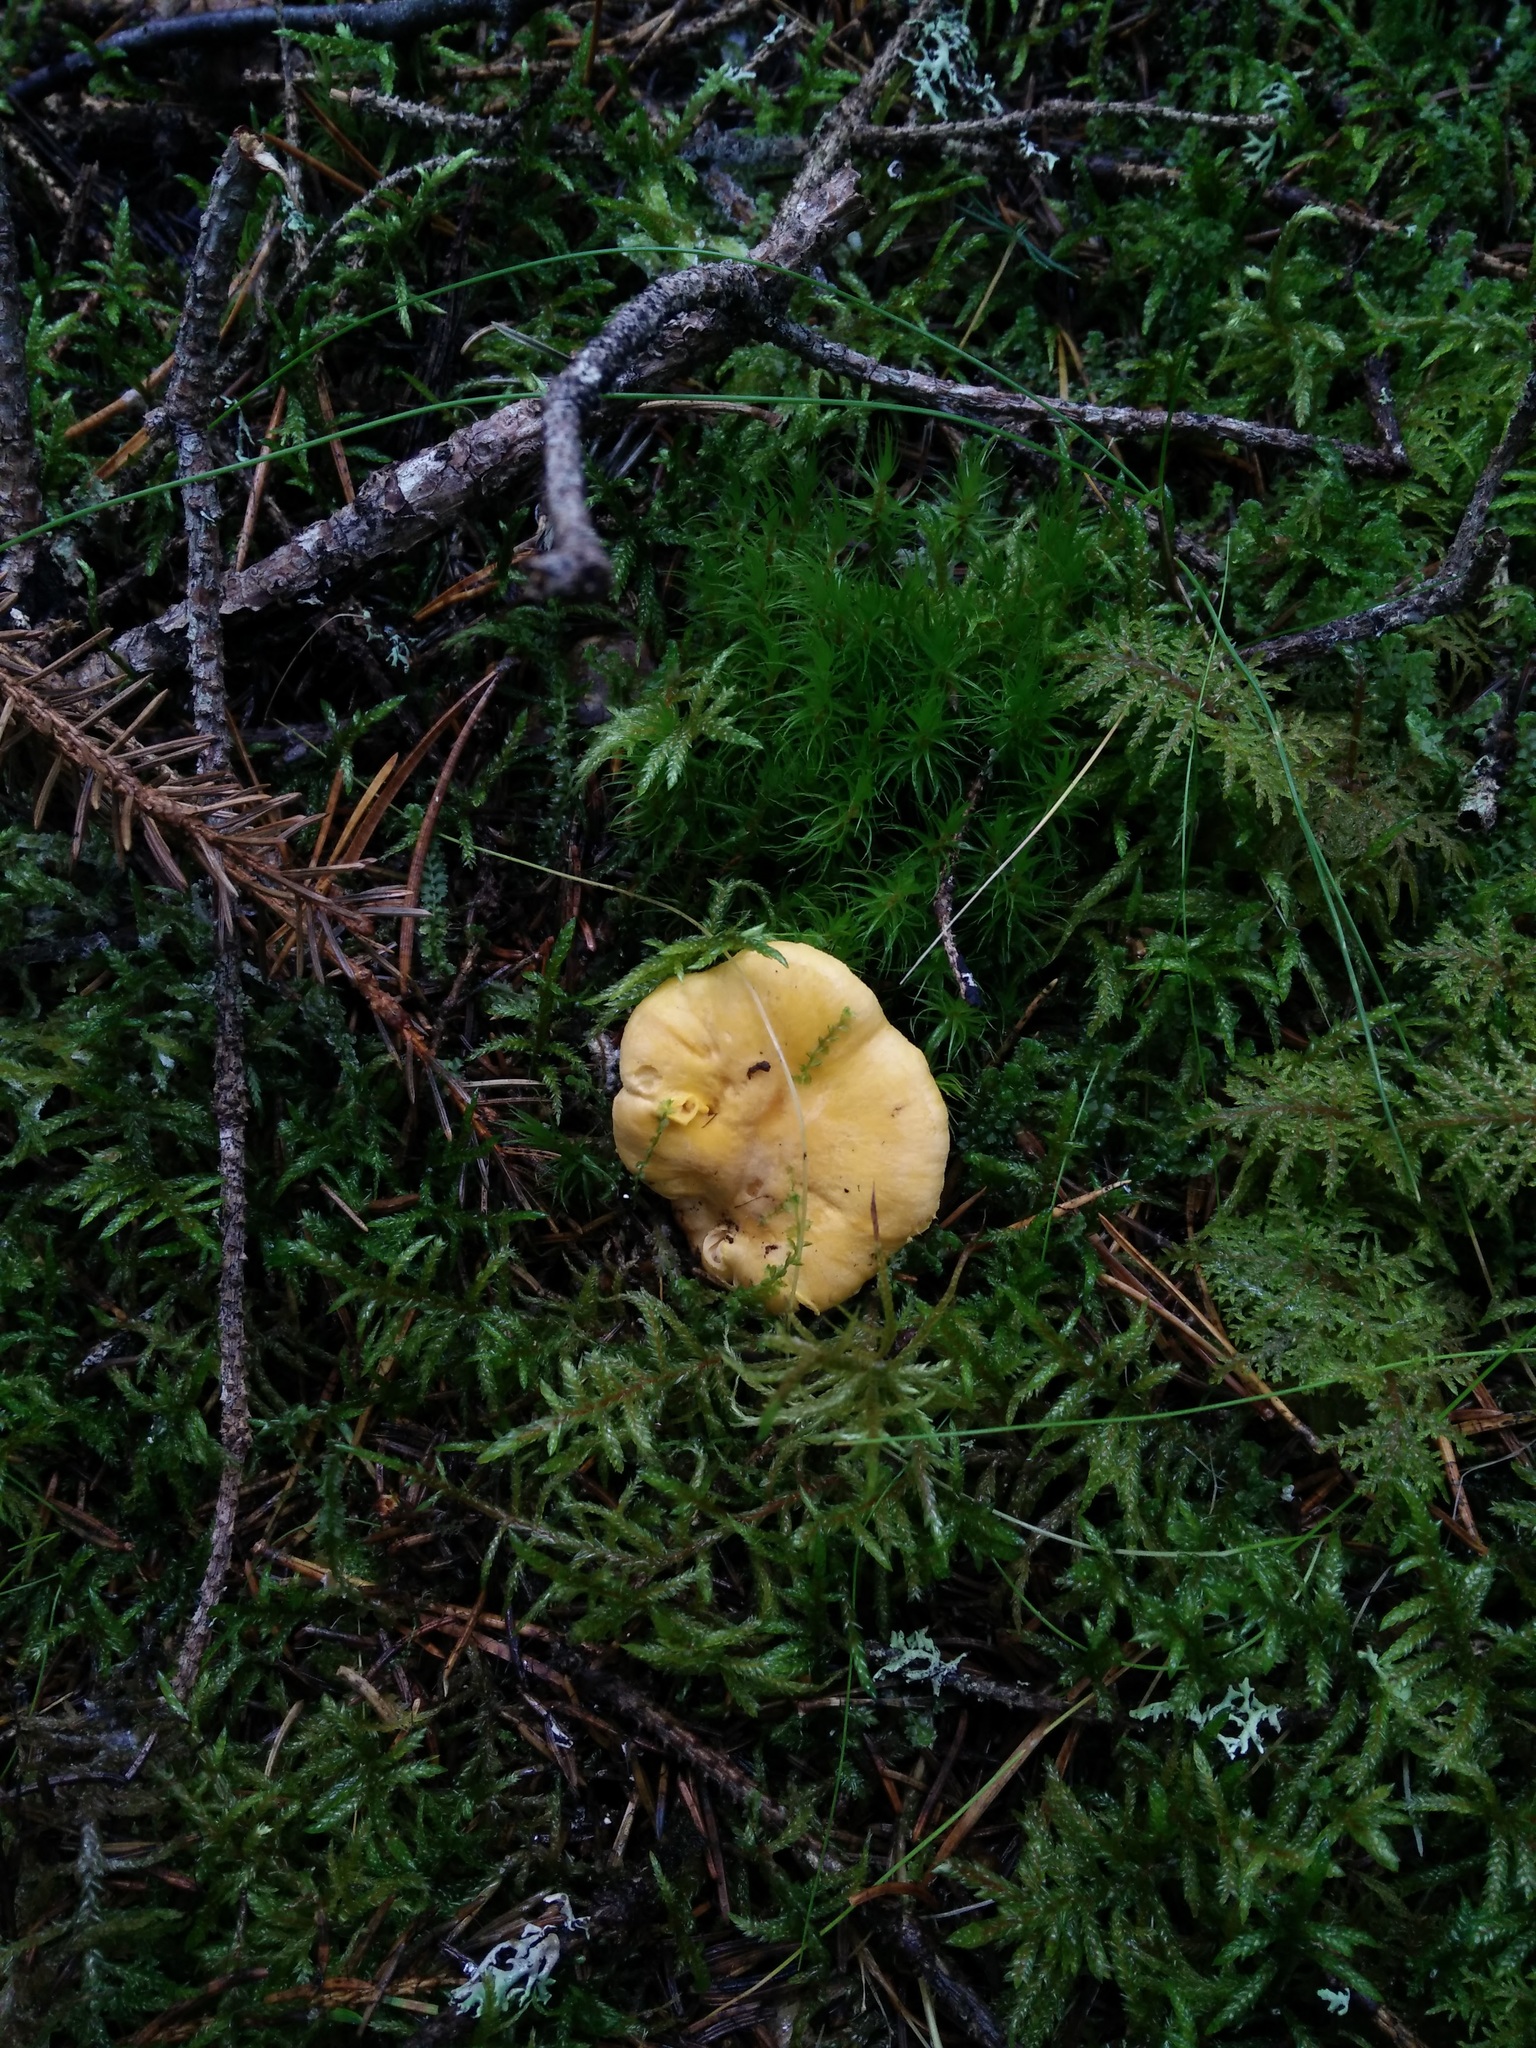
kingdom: Fungi
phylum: Basidiomycota
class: Agaricomycetes
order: Cantharellales
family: Hydnaceae
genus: Cantharellus
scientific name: Cantharellus cibarius
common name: Chanterelle
